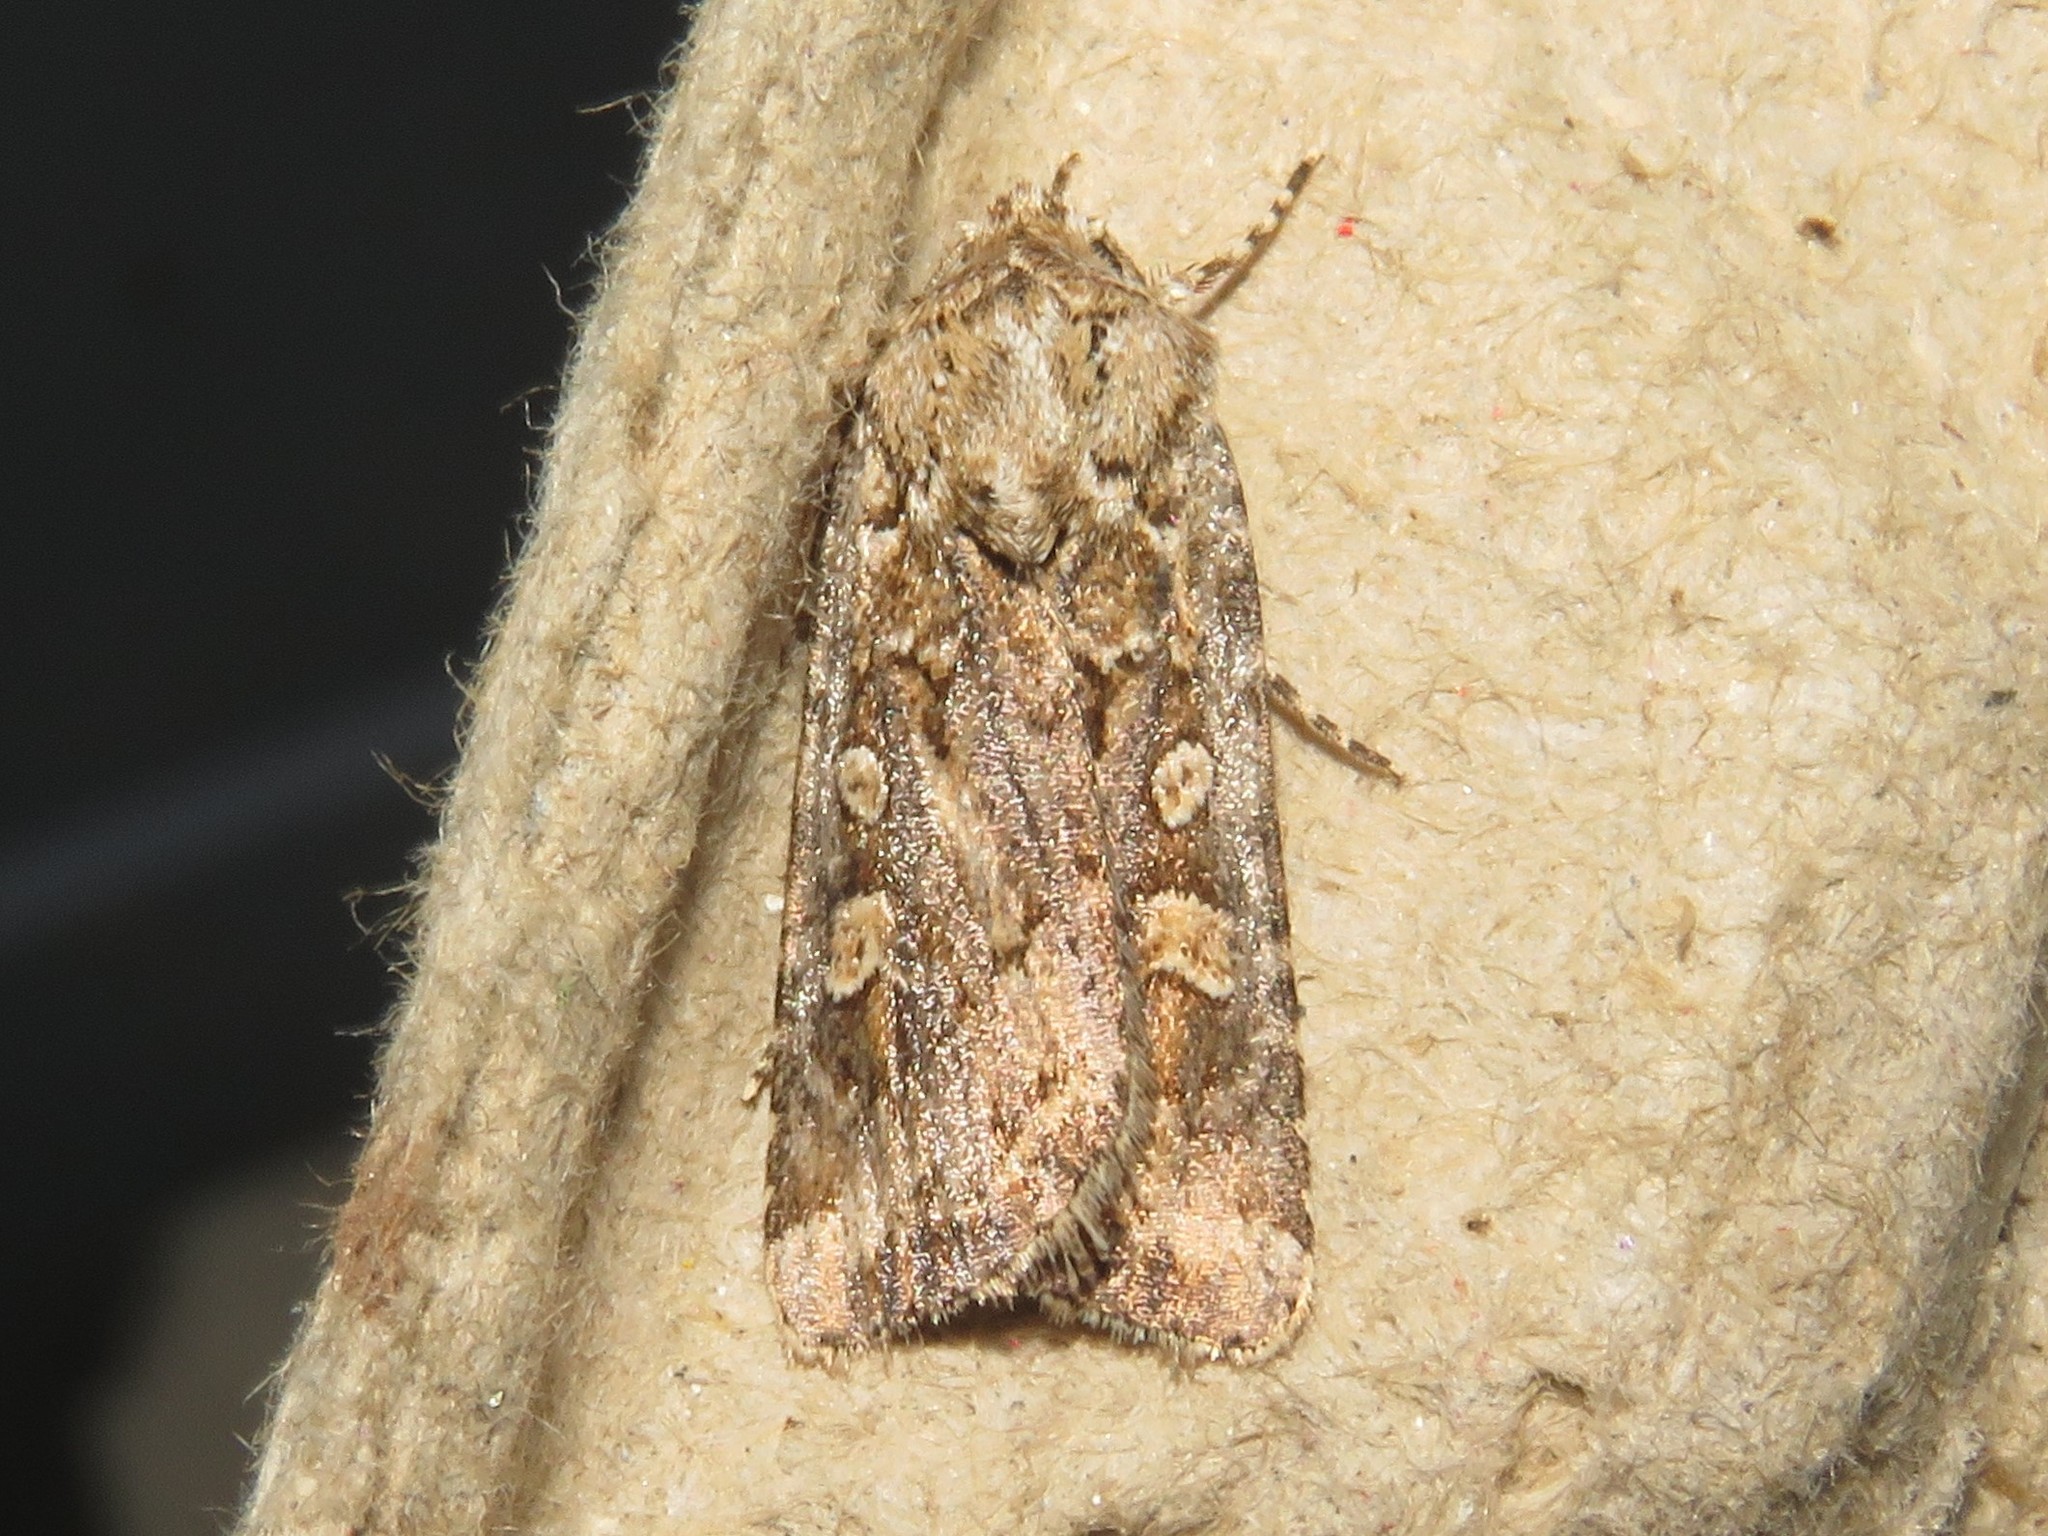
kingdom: Animalia
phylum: Arthropoda
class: Insecta
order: Lepidoptera
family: Noctuidae
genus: Euxoa
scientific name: Euxoa detersa
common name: Rubbed dart
